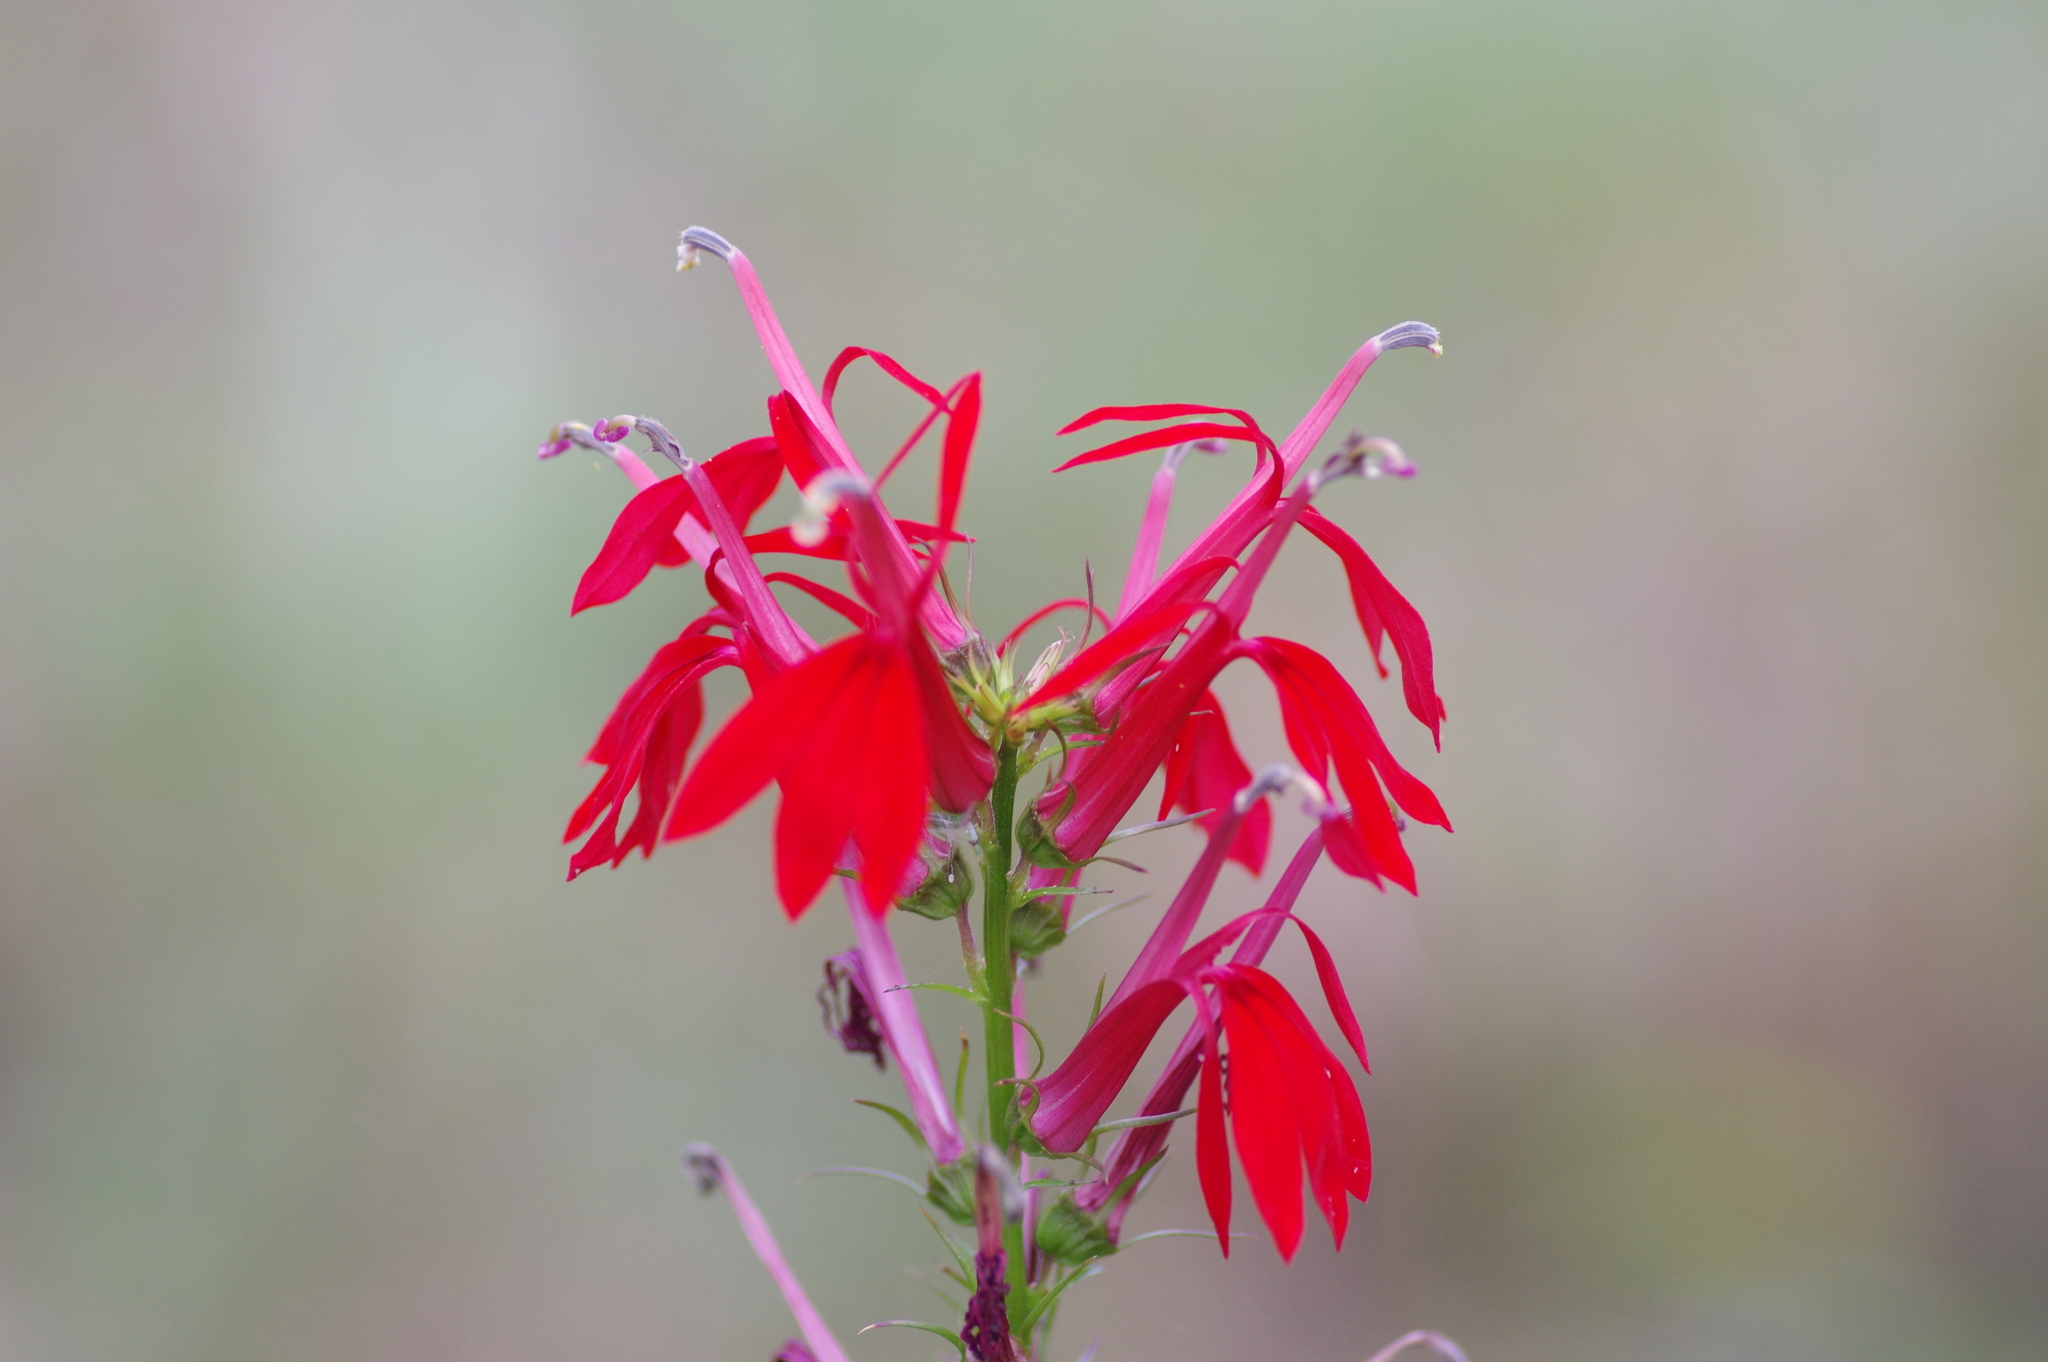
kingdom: Plantae
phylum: Tracheophyta
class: Magnoliopsida
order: Asterales
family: Campanulaceae
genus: Lobelia
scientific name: Lobelia cardinalis
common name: Cardinal flower
